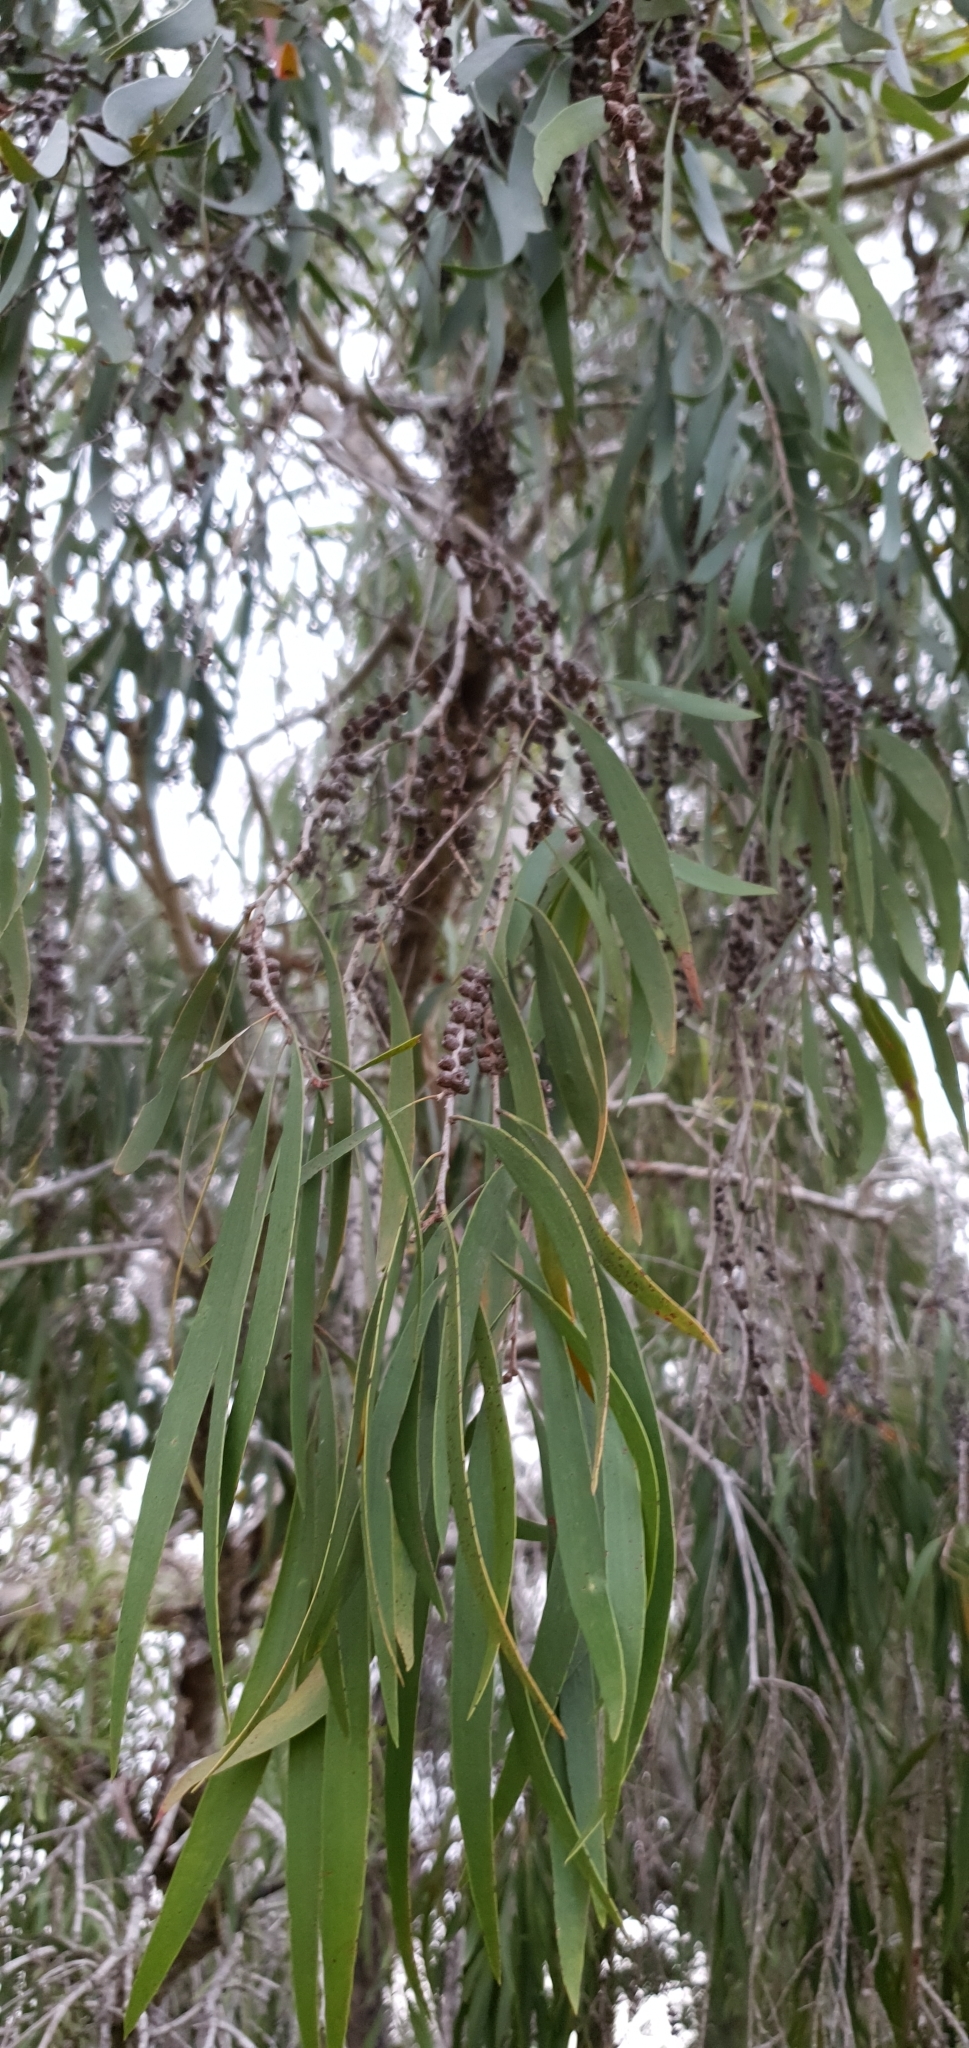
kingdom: Plantae
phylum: Tracheophyta
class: Magnoliopsida
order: Myrtales
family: Myrtaceae
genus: Melaleuca
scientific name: Melaleuca fluviatilis
